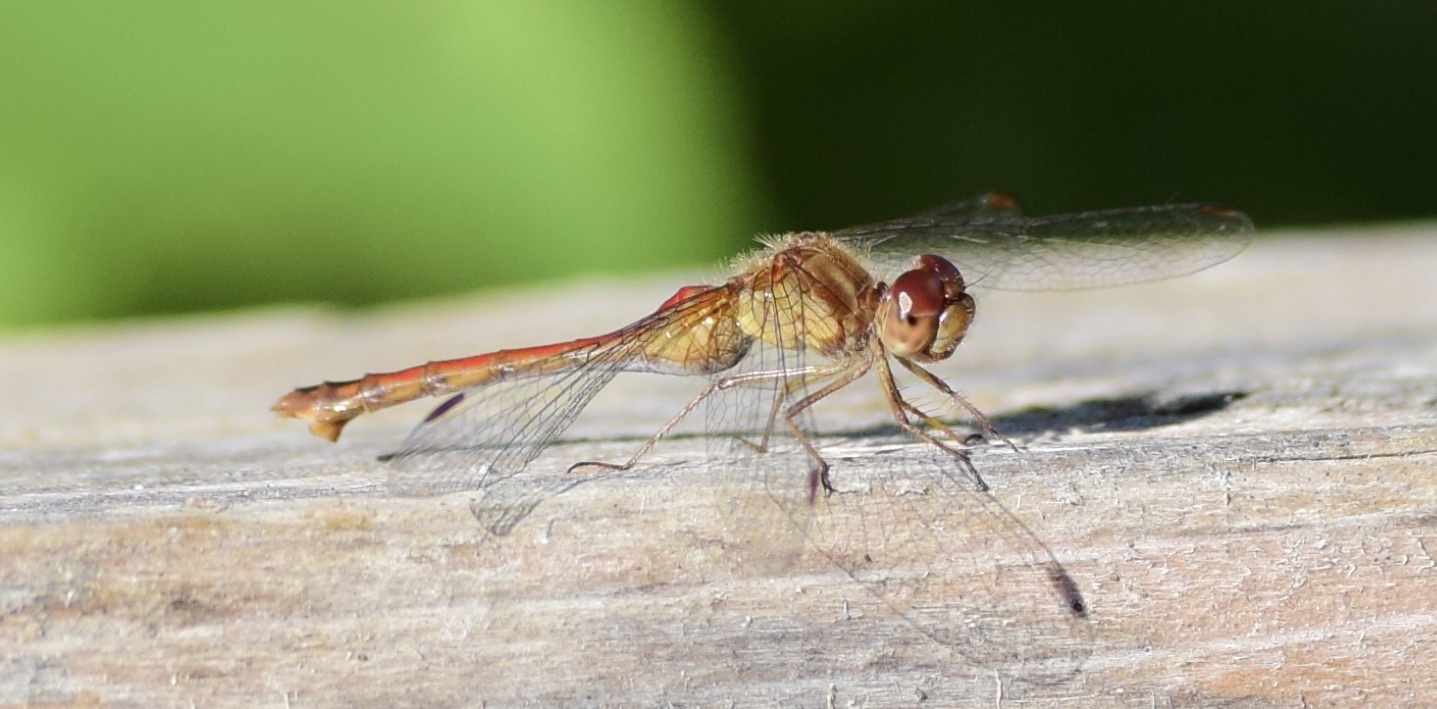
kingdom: Animalia
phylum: Arthropoda
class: Insecta
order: Odonata
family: Libellulidae
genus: Sympetrum
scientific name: Sympetrum vicinum
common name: Autumn meadowhawk
